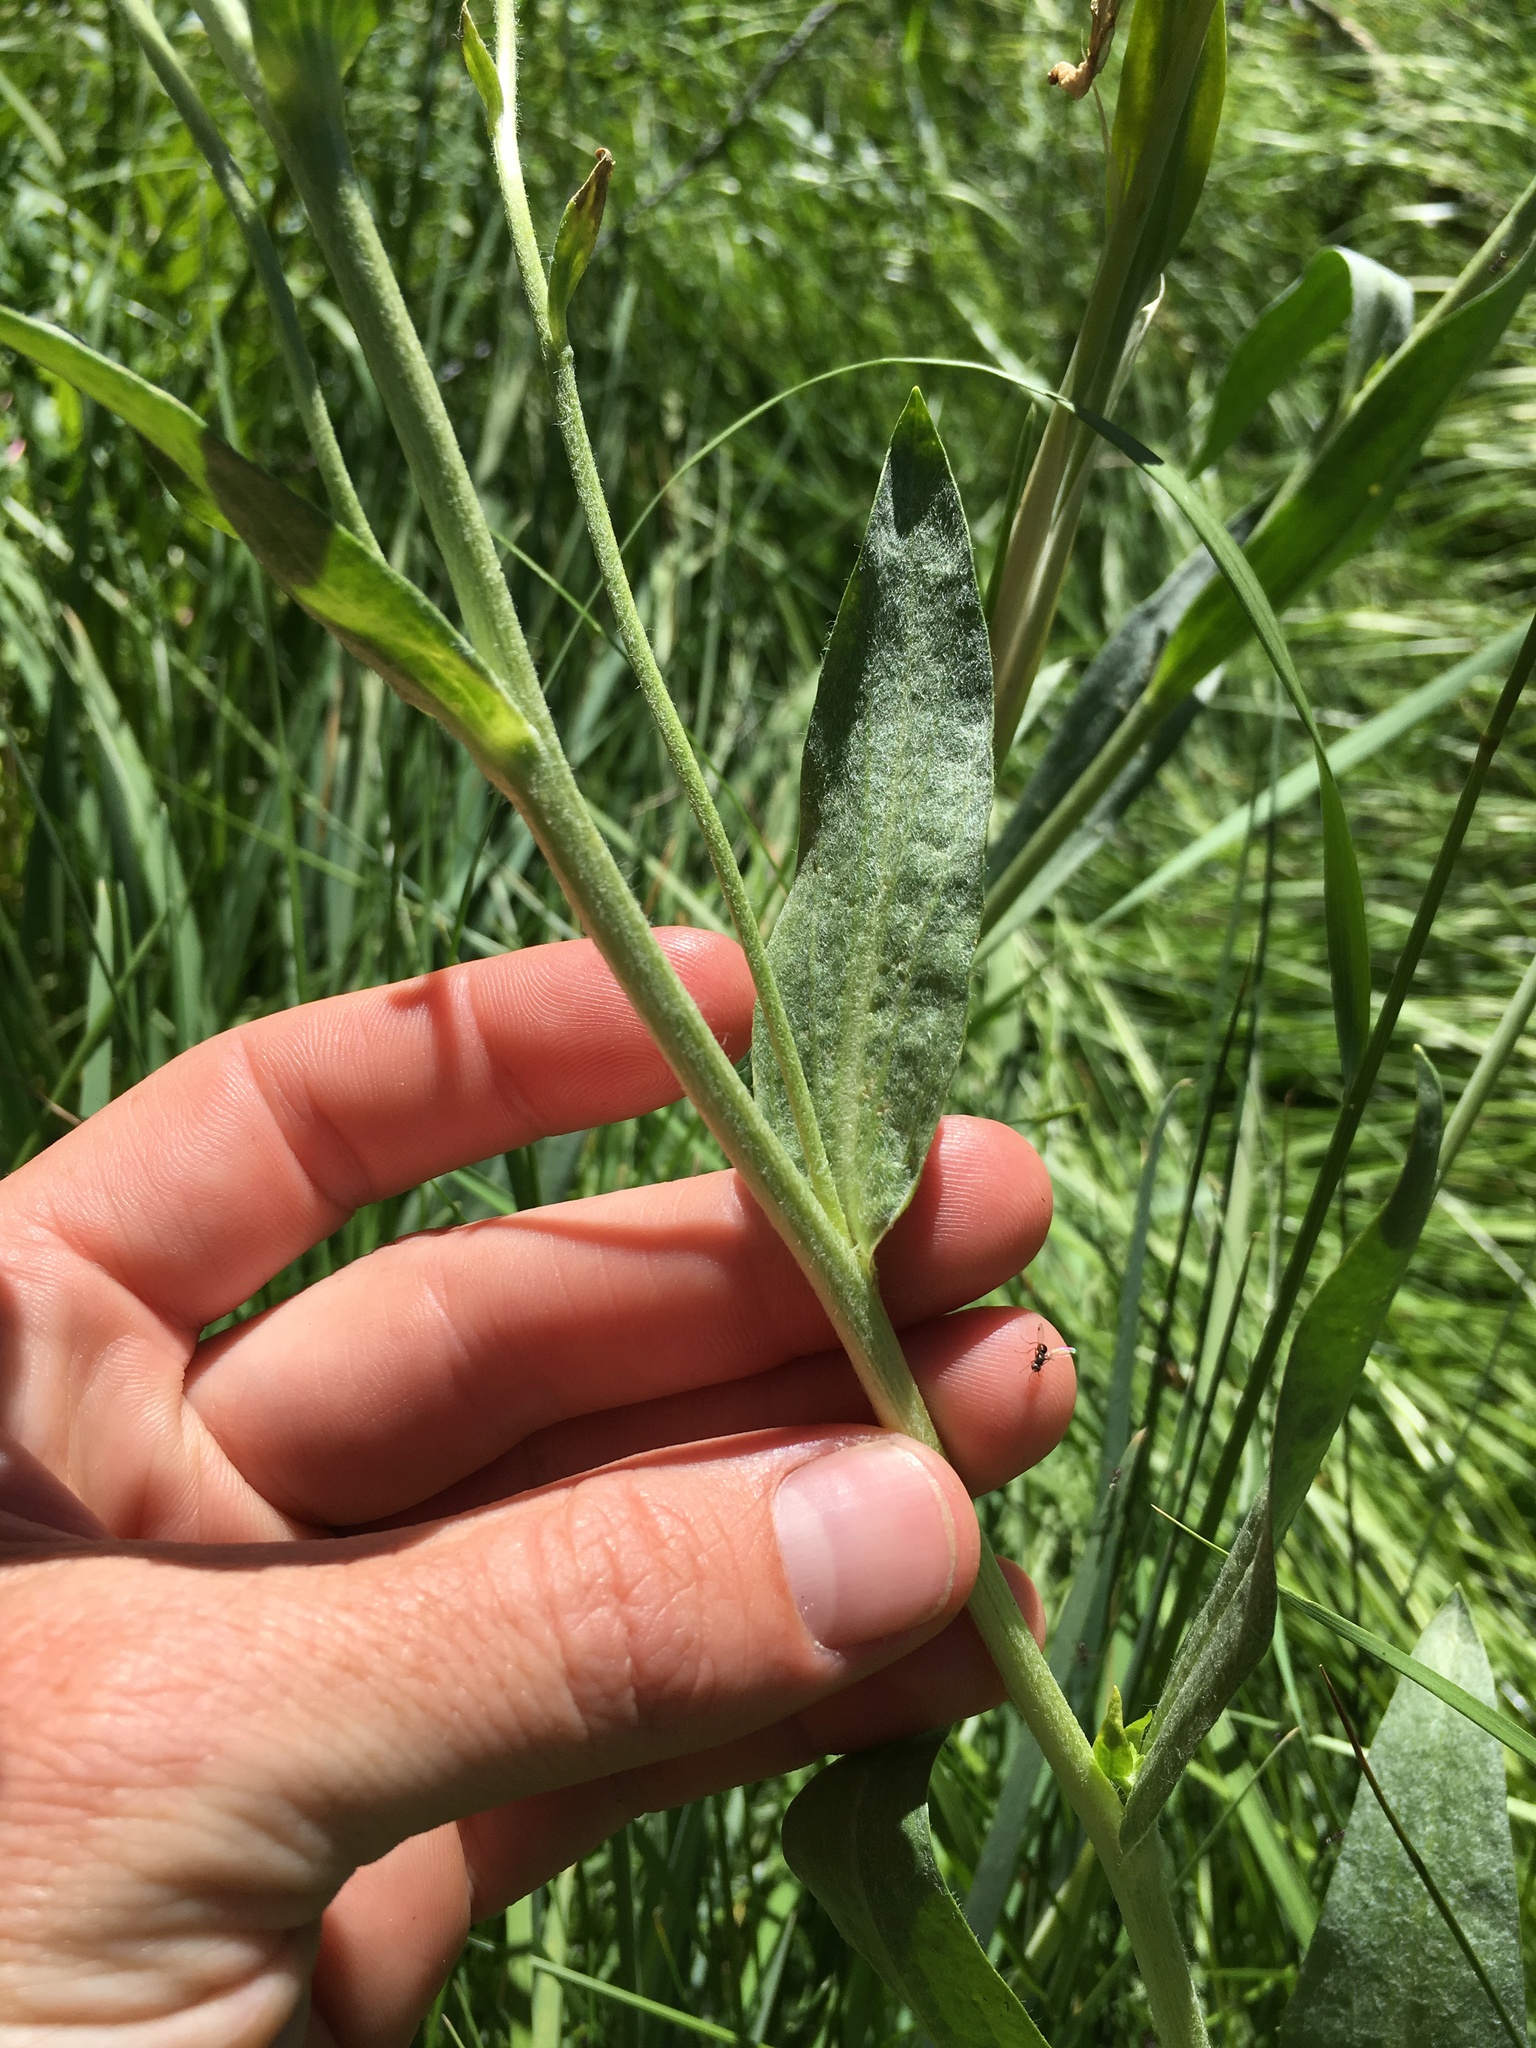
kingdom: Plantae
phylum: Tracheophyta
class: Magnoliopsida
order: Asterales
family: Asteraceae
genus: Hymenoxys
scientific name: Hymenoxys hoopesii
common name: Orange-sneezeweed
